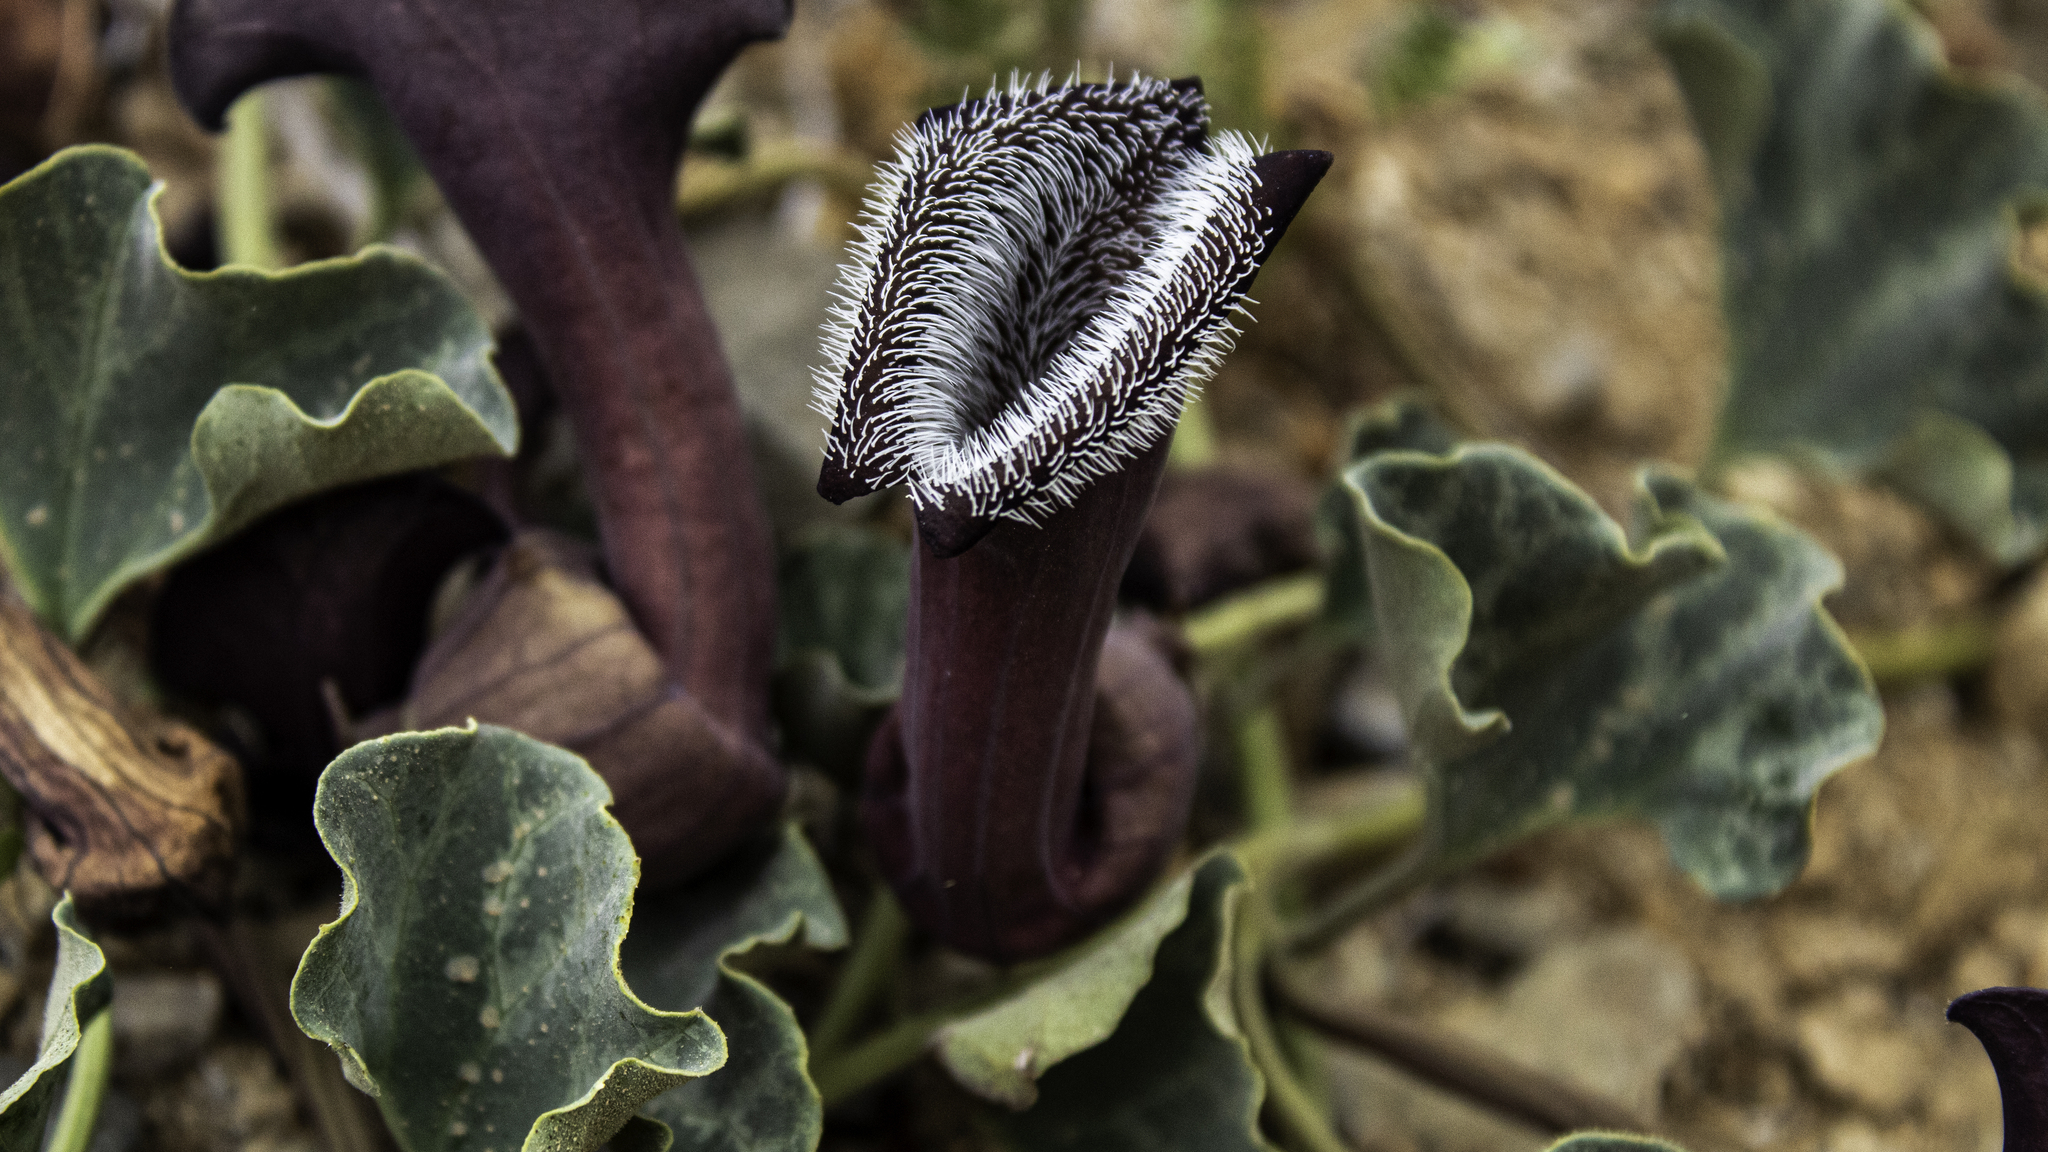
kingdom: Plantae
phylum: Tracheophyta
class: Magnoliopsida
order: Piperales
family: Aristolochiaceae
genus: Aristolochia
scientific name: Aristolochia chilensis
